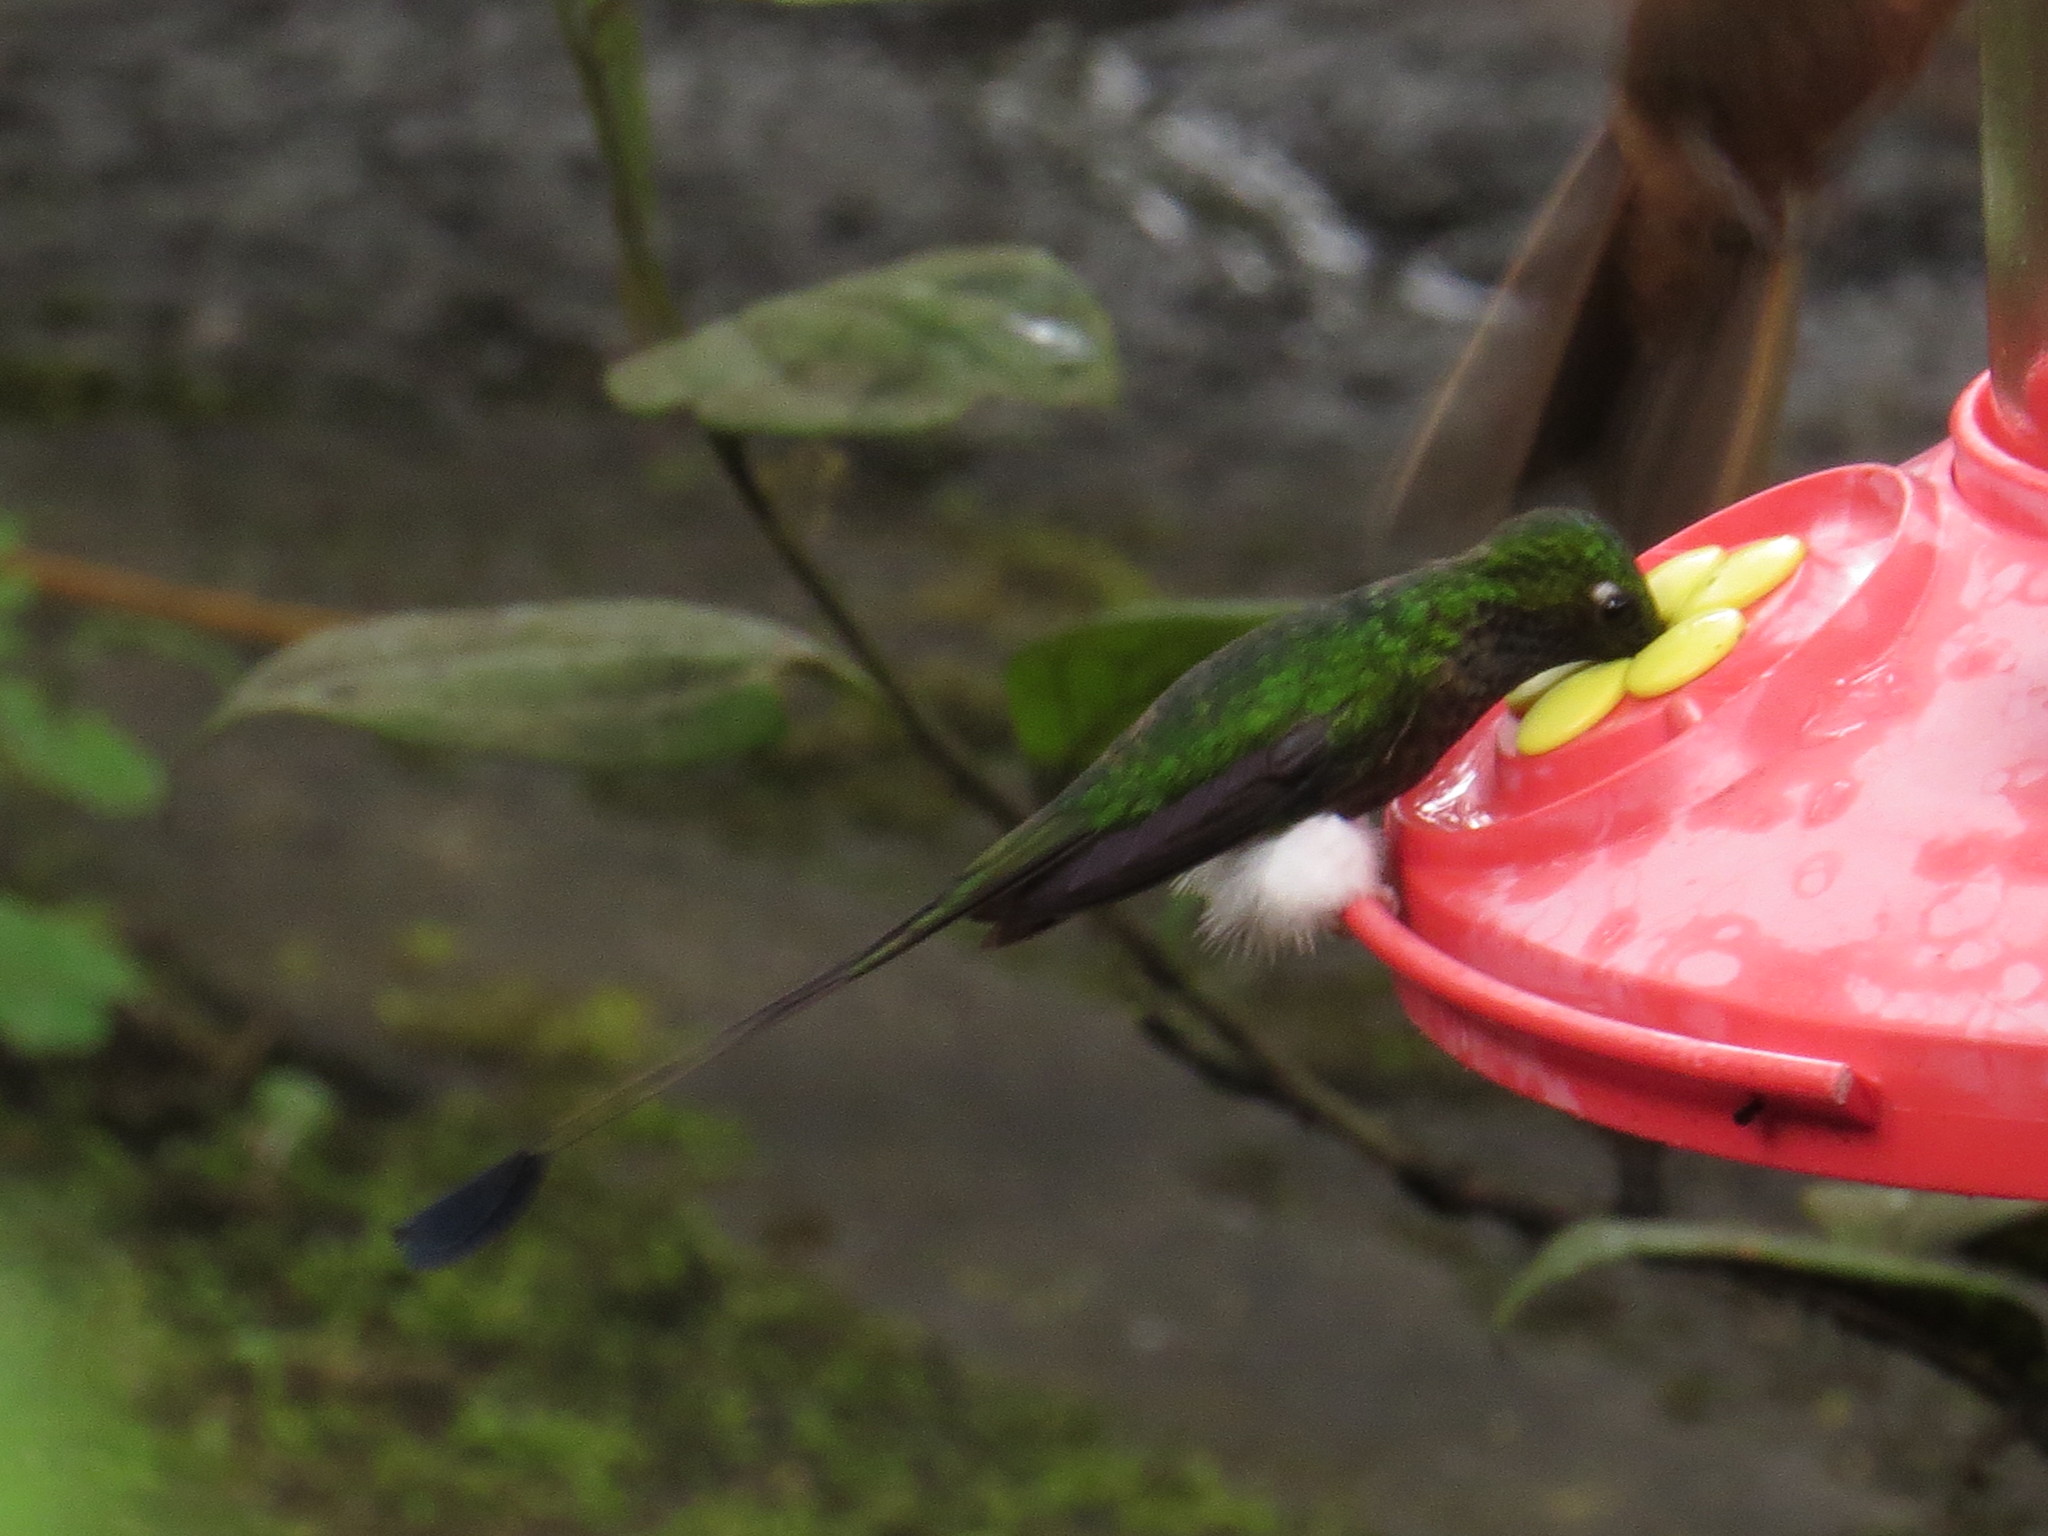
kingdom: Animalia
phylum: Chordata
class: Aves
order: Apodiformes
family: Trochilidae
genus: Ocreatus
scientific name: Ocreatus underwoodii
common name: Booted racket-tail
